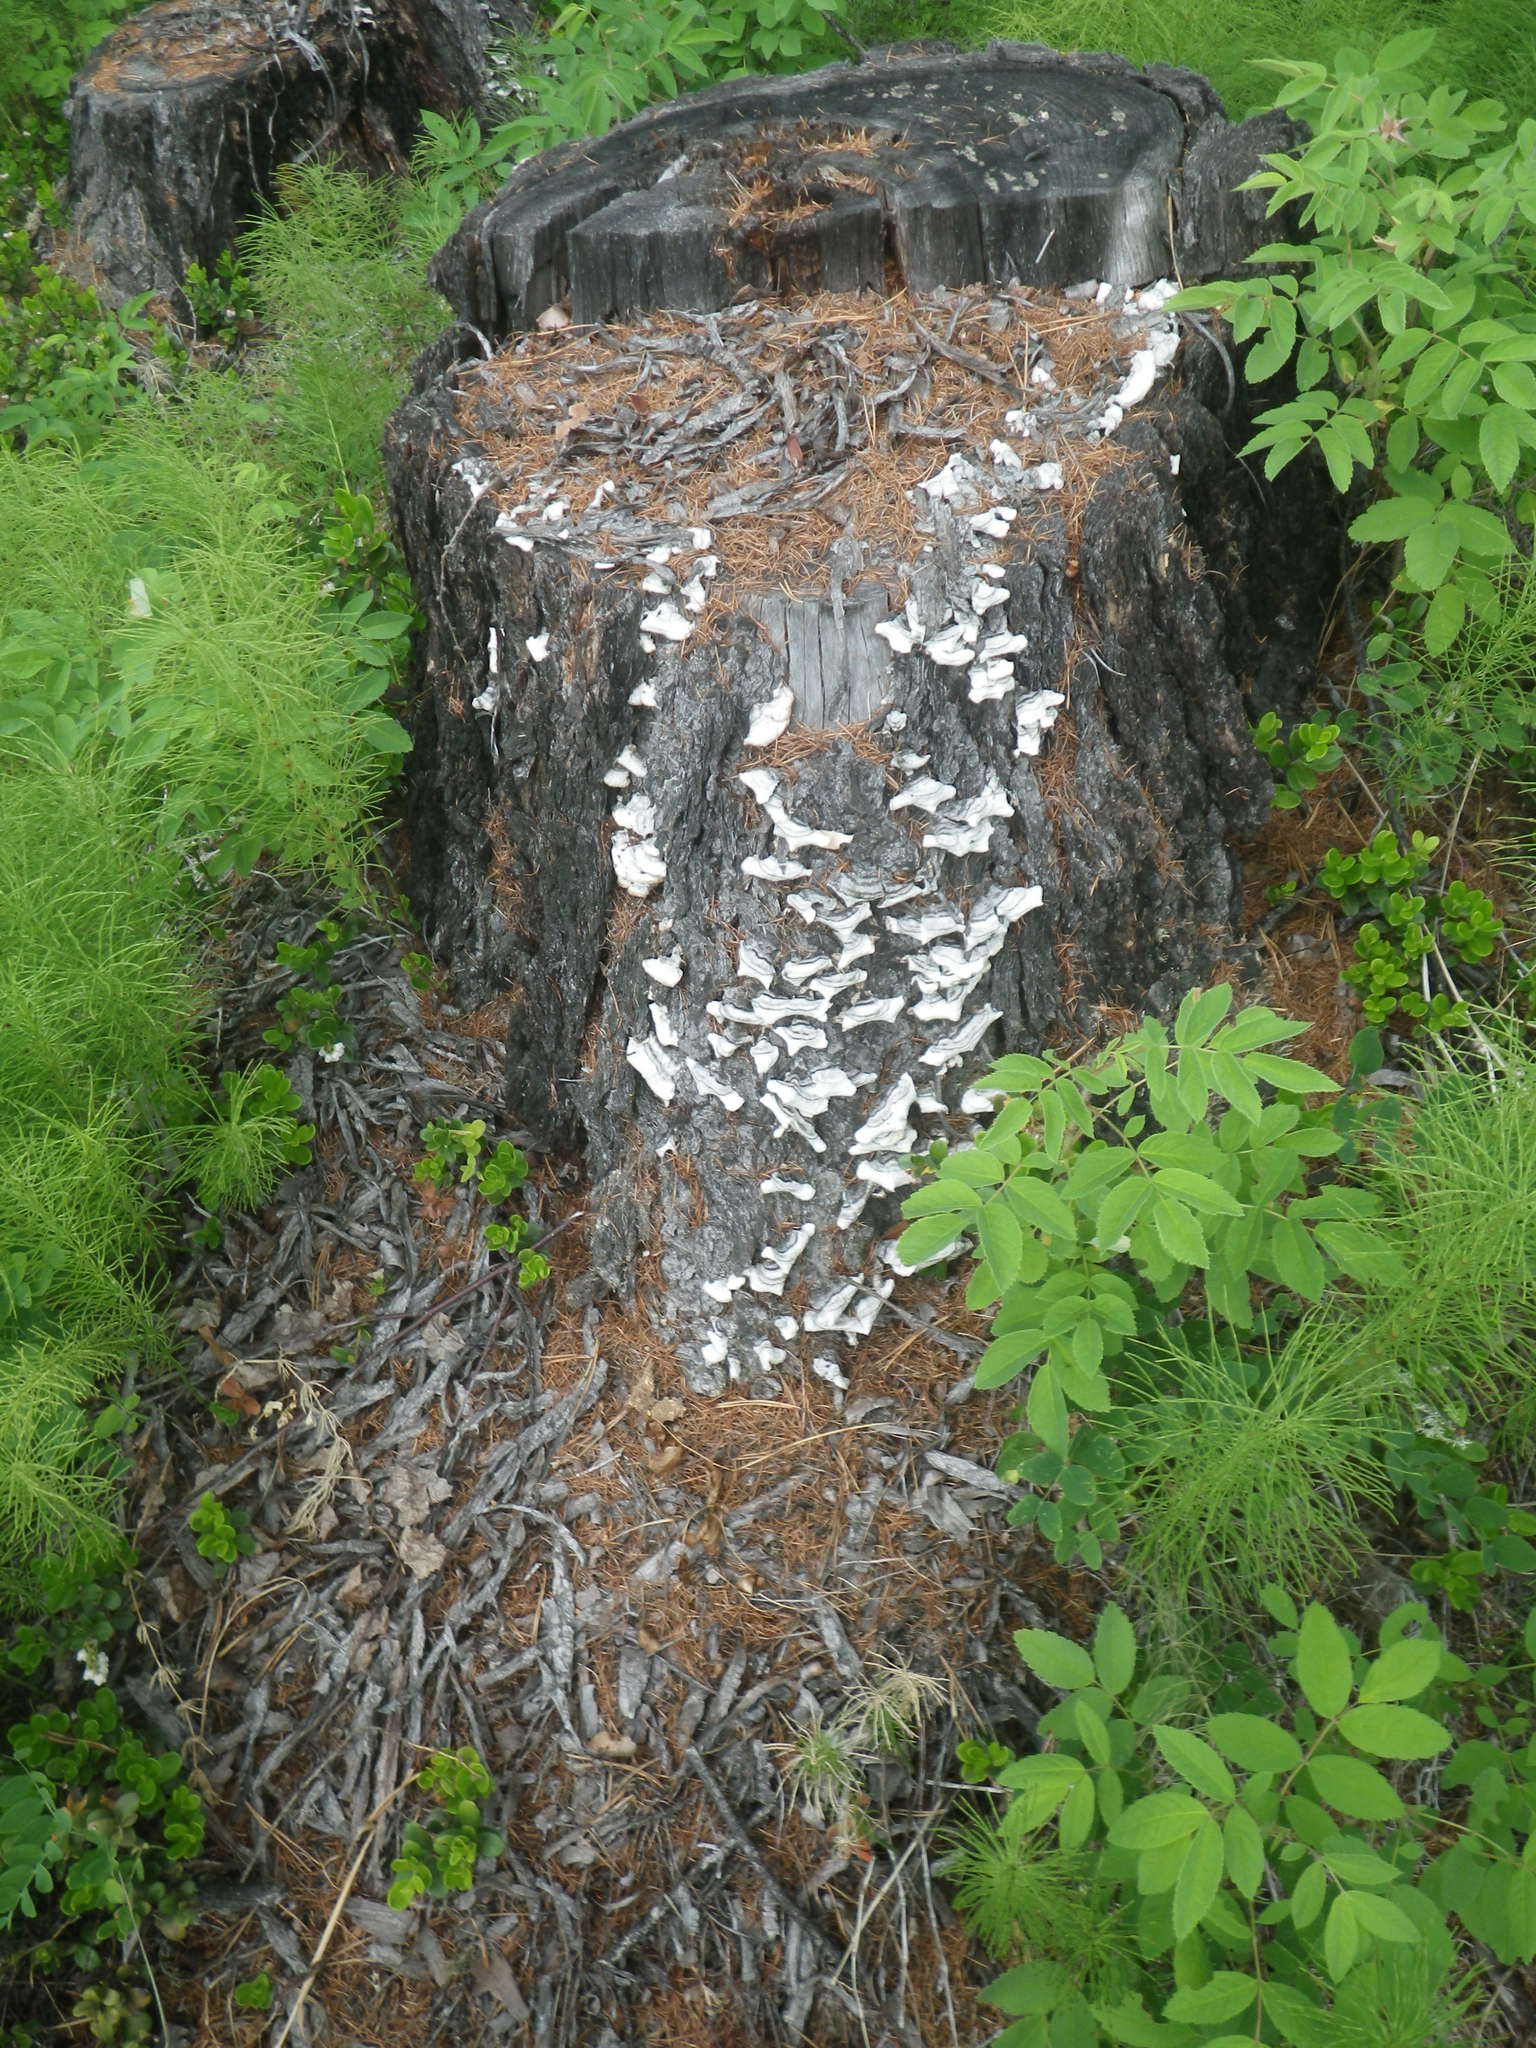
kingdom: Plantae
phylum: Tracheophyta
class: Magnoliopsida
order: Rosales
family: Rosaceae
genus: Rosa
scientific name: Rosa acicularis
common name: Prickly rose
